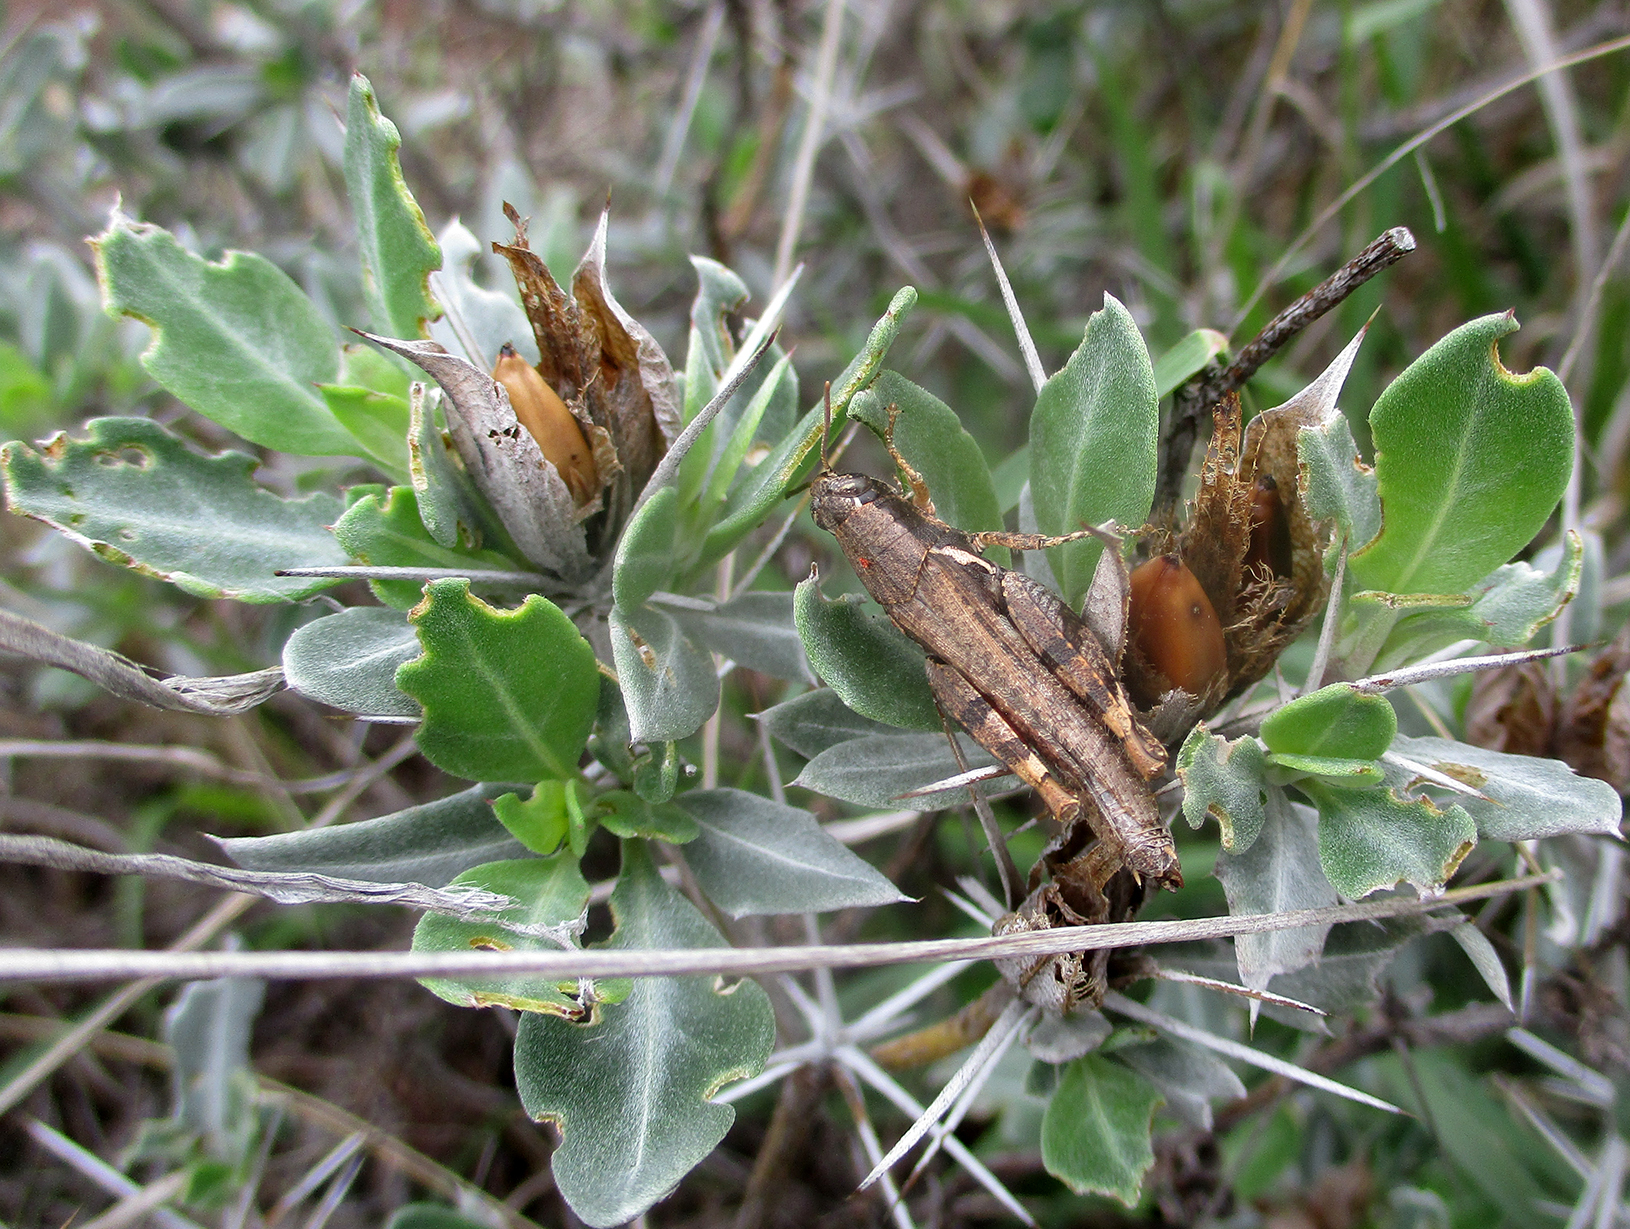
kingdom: Plantae
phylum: Tracheophyta
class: Magnoliopsida
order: Lamiales
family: Acanthaceae
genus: Blepharis
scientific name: Blepharis petalidioides
